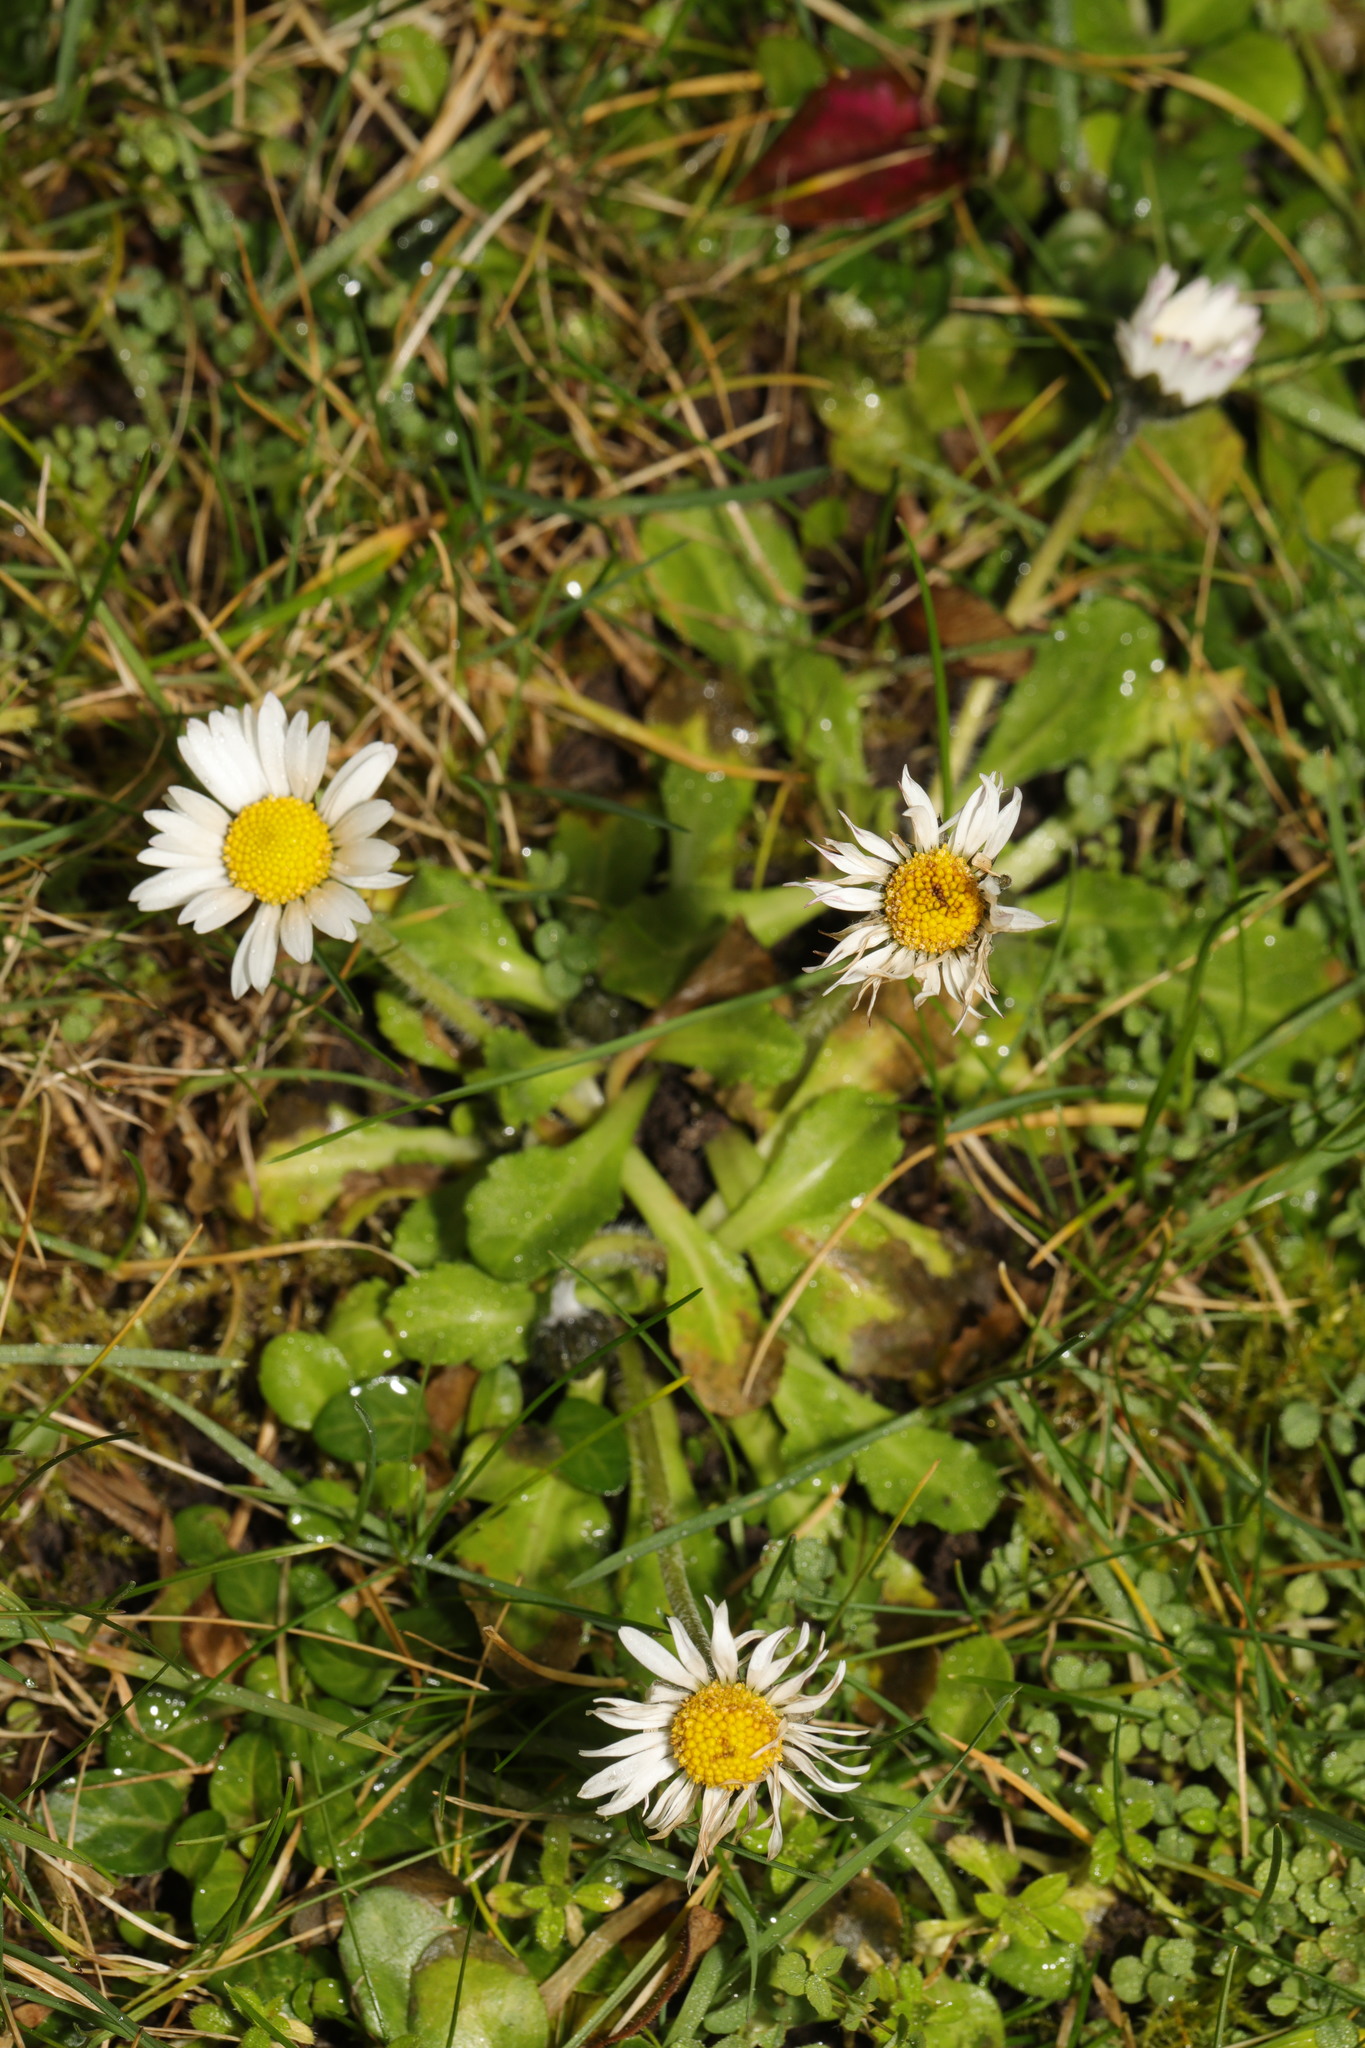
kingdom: Plantae
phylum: Tracheophyta
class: Magnoliopsida
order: Asterales
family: Asteraceae
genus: Bellis
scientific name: Bellis perennis
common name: Lawndaisy
